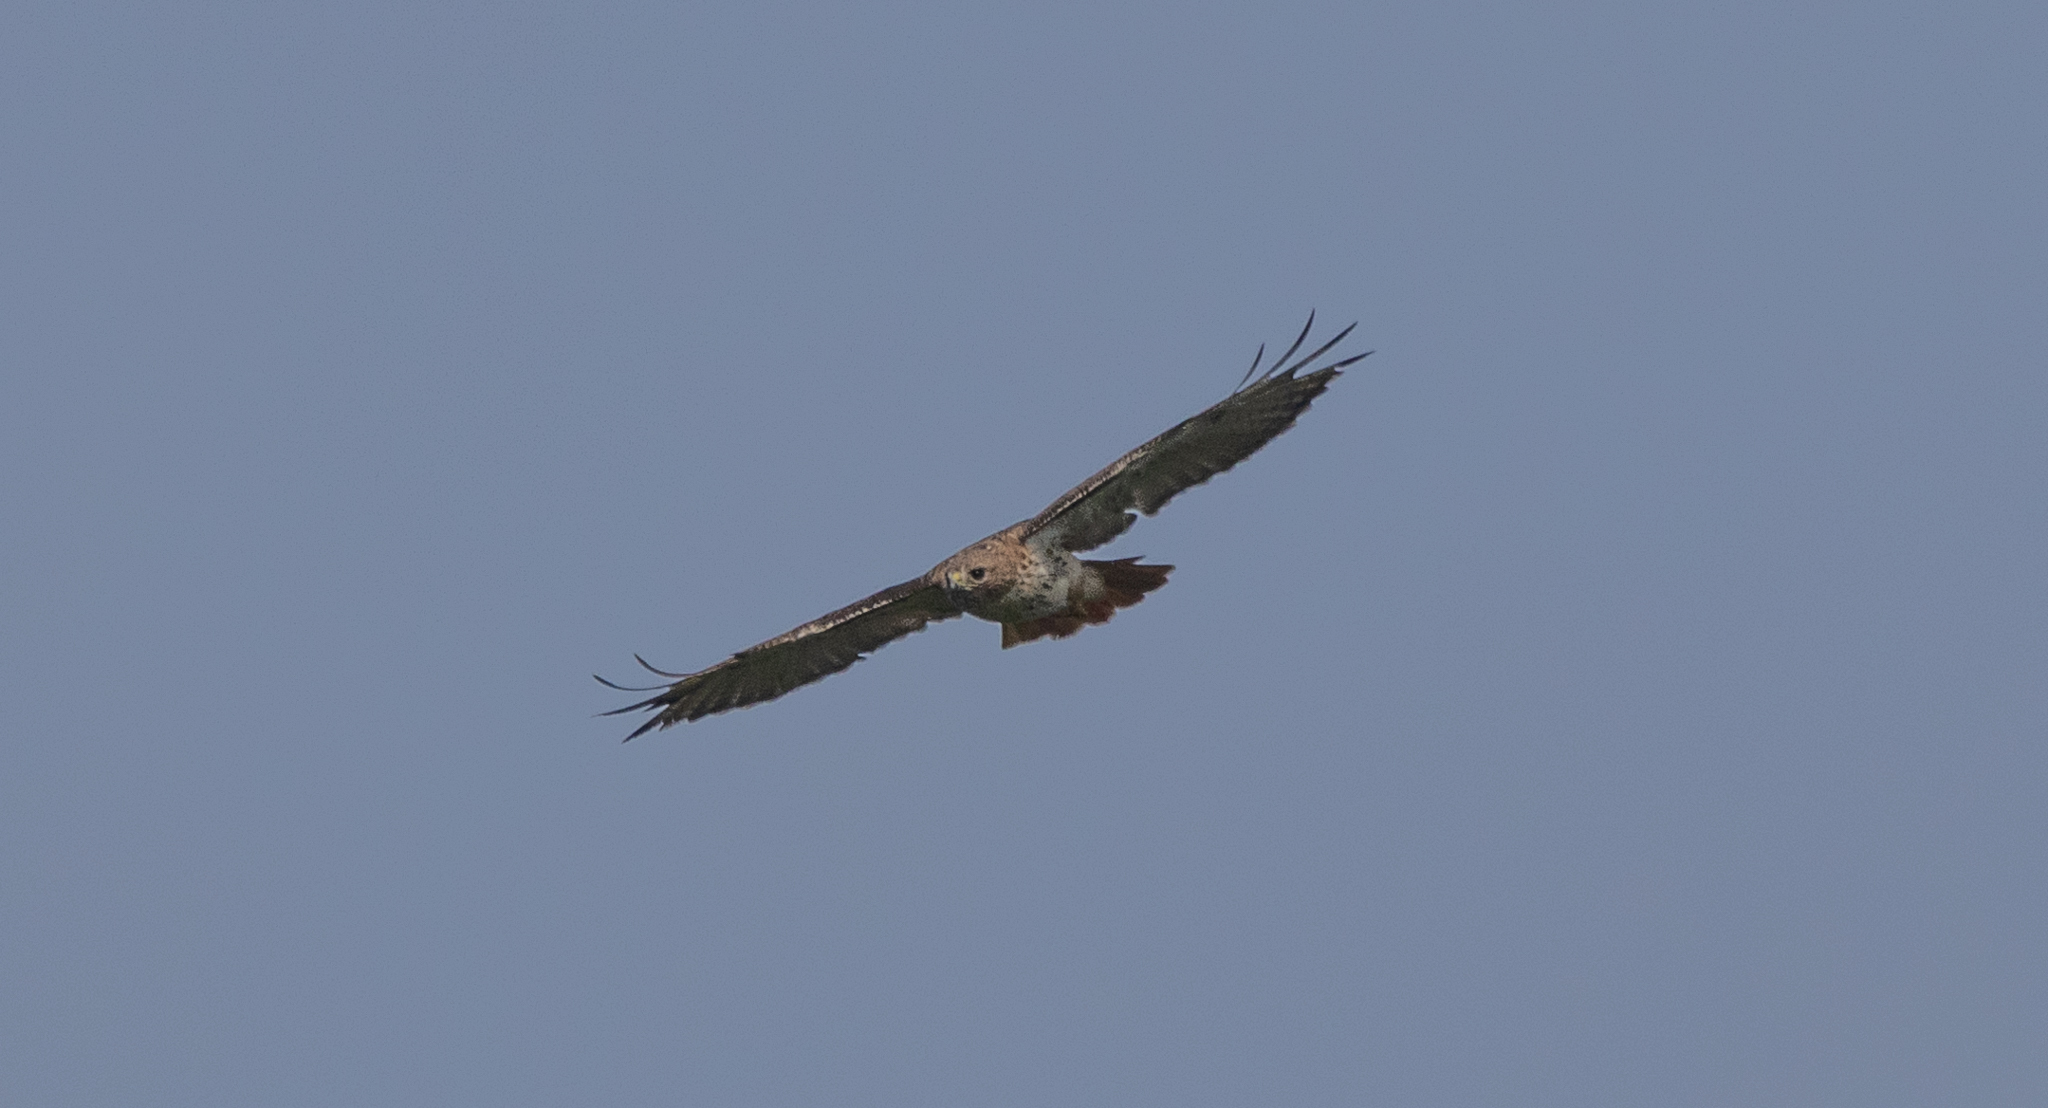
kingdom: Animalia
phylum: Chordata
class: Aves
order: Accipitriformes
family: Accipitridae
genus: Buteo
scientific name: Buteo jamaicensis
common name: Red-tailed hawk
